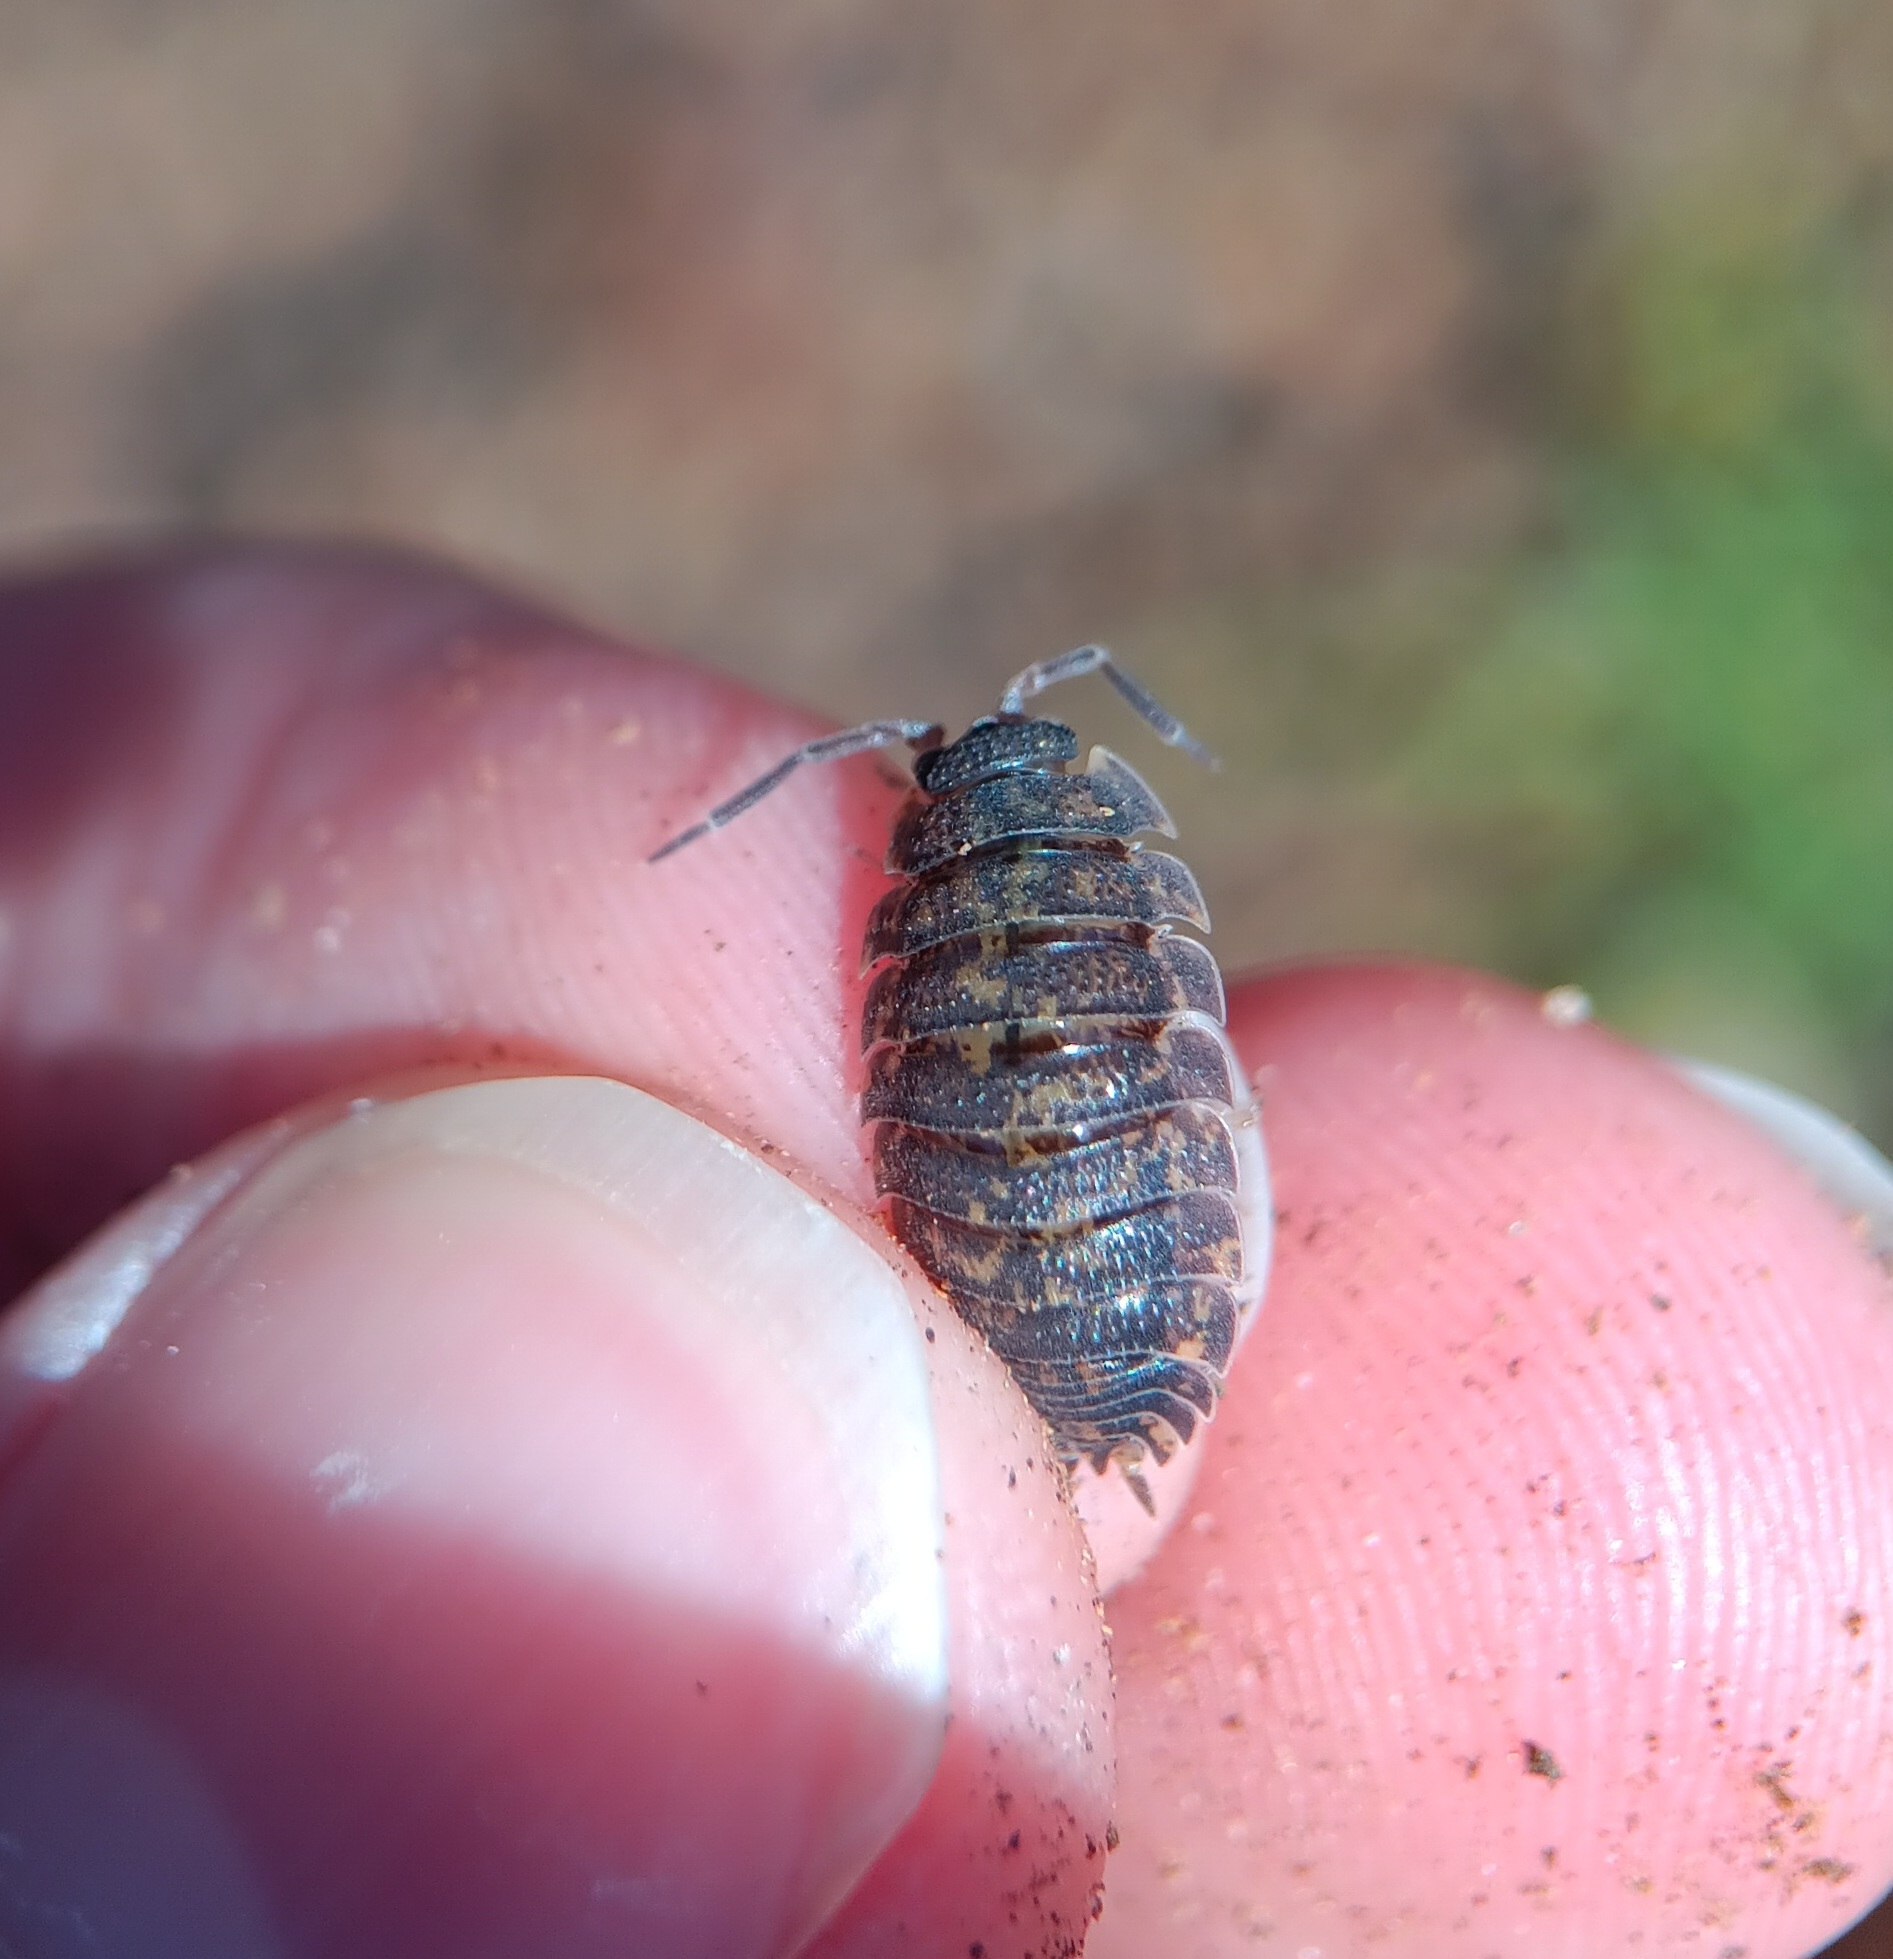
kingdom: Animalia
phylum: Arthropoda
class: Malacostraca
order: Isopoda
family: Porcellionidae
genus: Porcellio
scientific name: Porcellio scaber
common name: Common rough woodlouse
